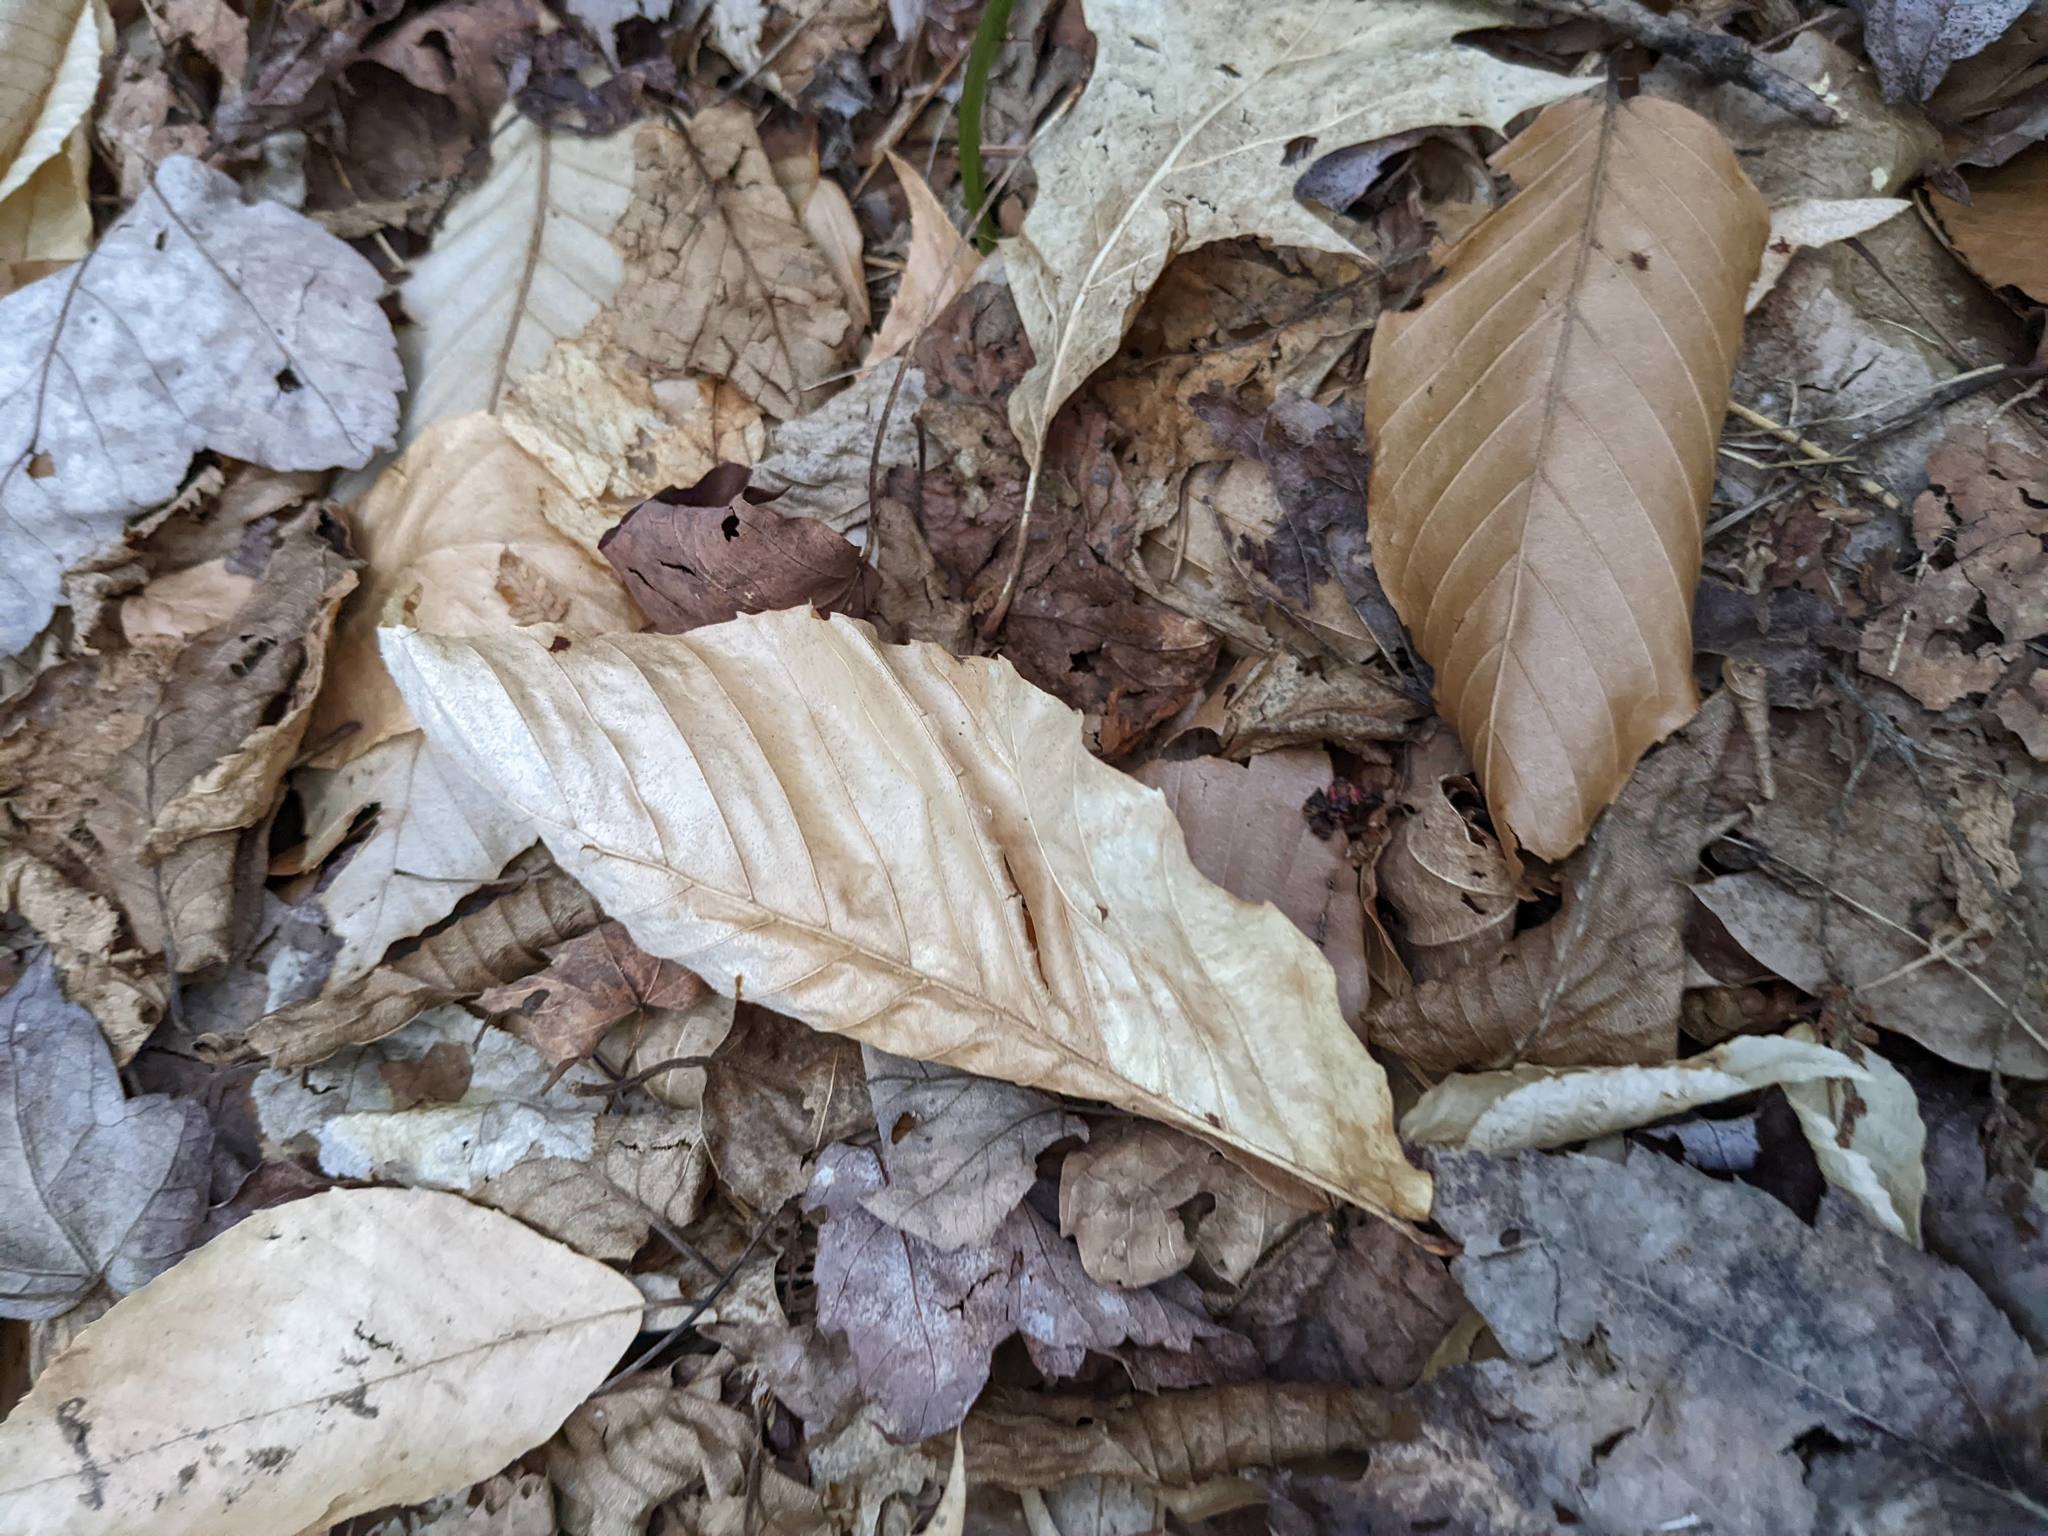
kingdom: Plantae
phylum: Tracheophyta
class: Magnoliopsida
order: Fagales
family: Fagaceae
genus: Fagus
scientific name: Fagus grandifolia
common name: American beech
